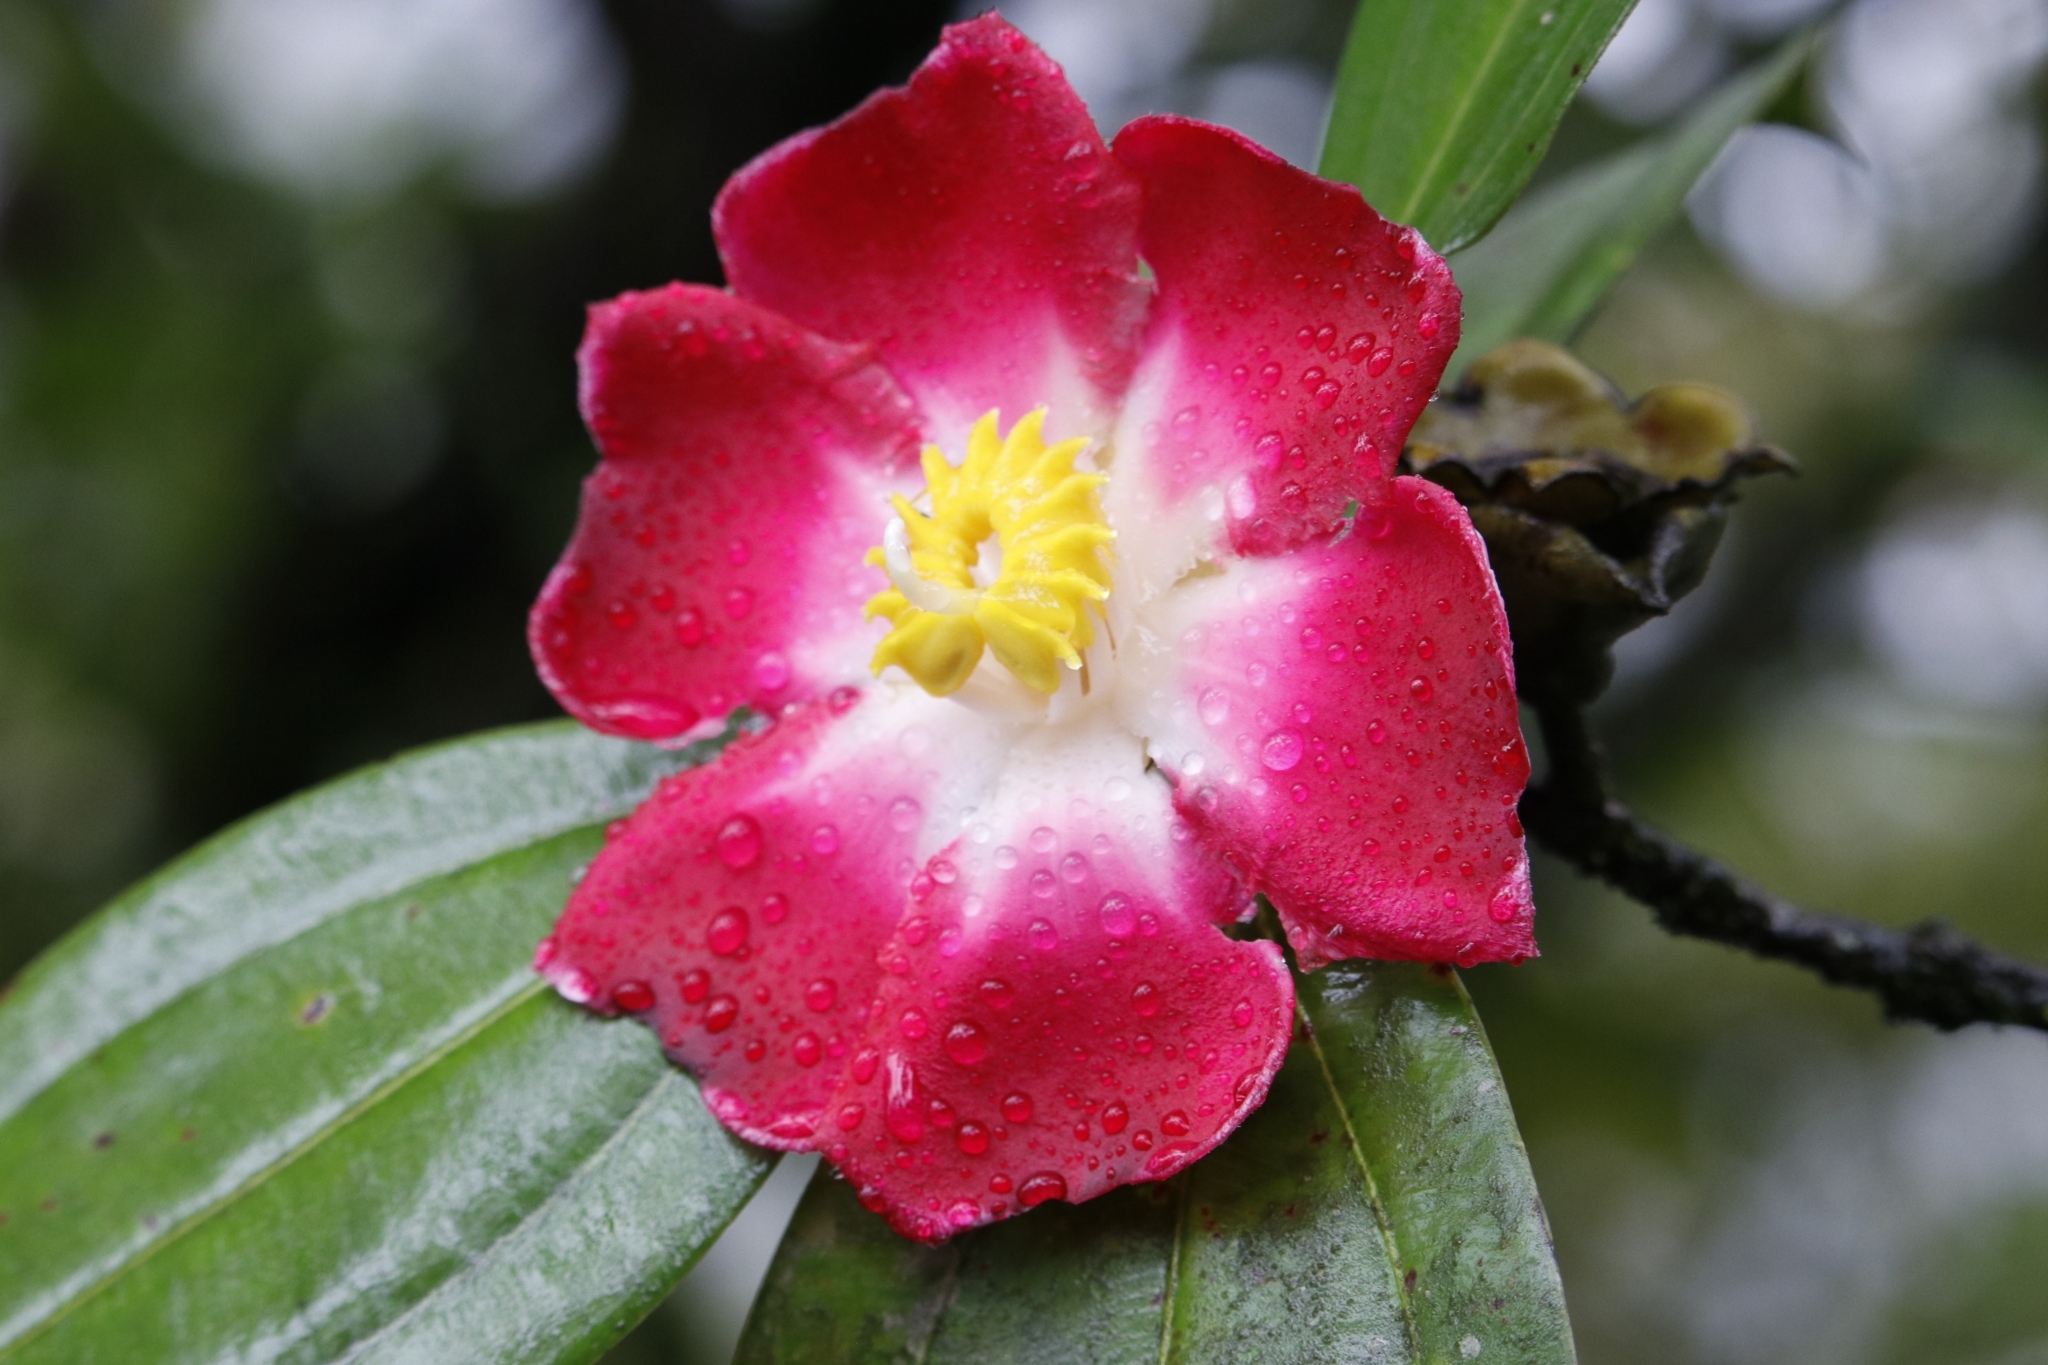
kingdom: Plantae
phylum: Tracheophyta
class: Magnoliopsida
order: Myrtales
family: Melastomataceae
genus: Blakea
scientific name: Blakea scarlatina
